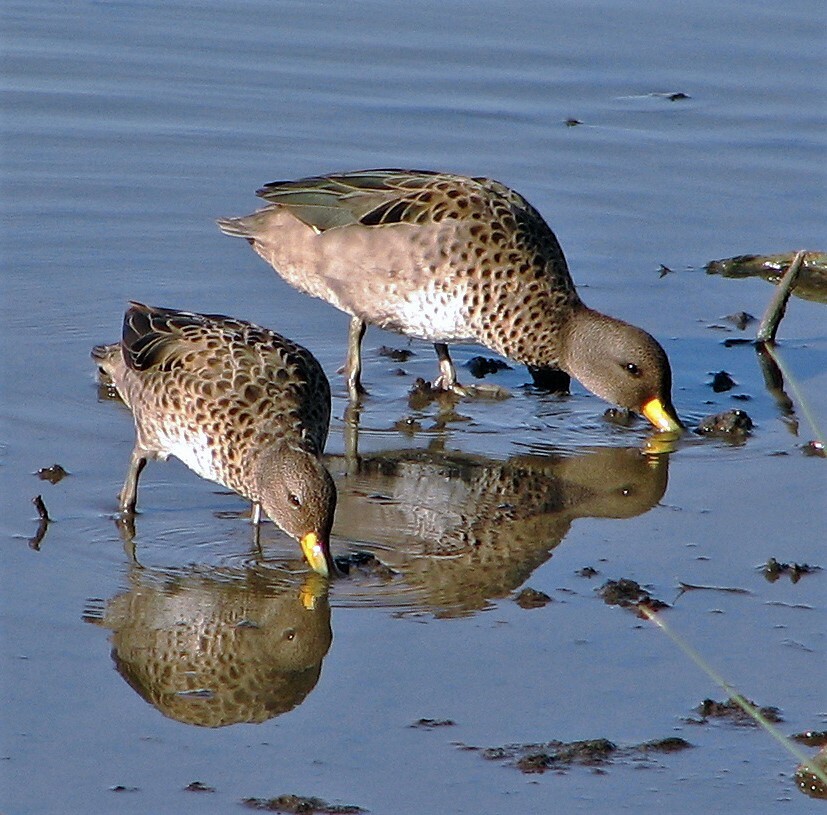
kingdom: Animalia
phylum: Chordata
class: Aves
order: Anseriformes
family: Anatidae
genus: Anas
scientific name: Anas flavirostris
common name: Yellow-billed teal
